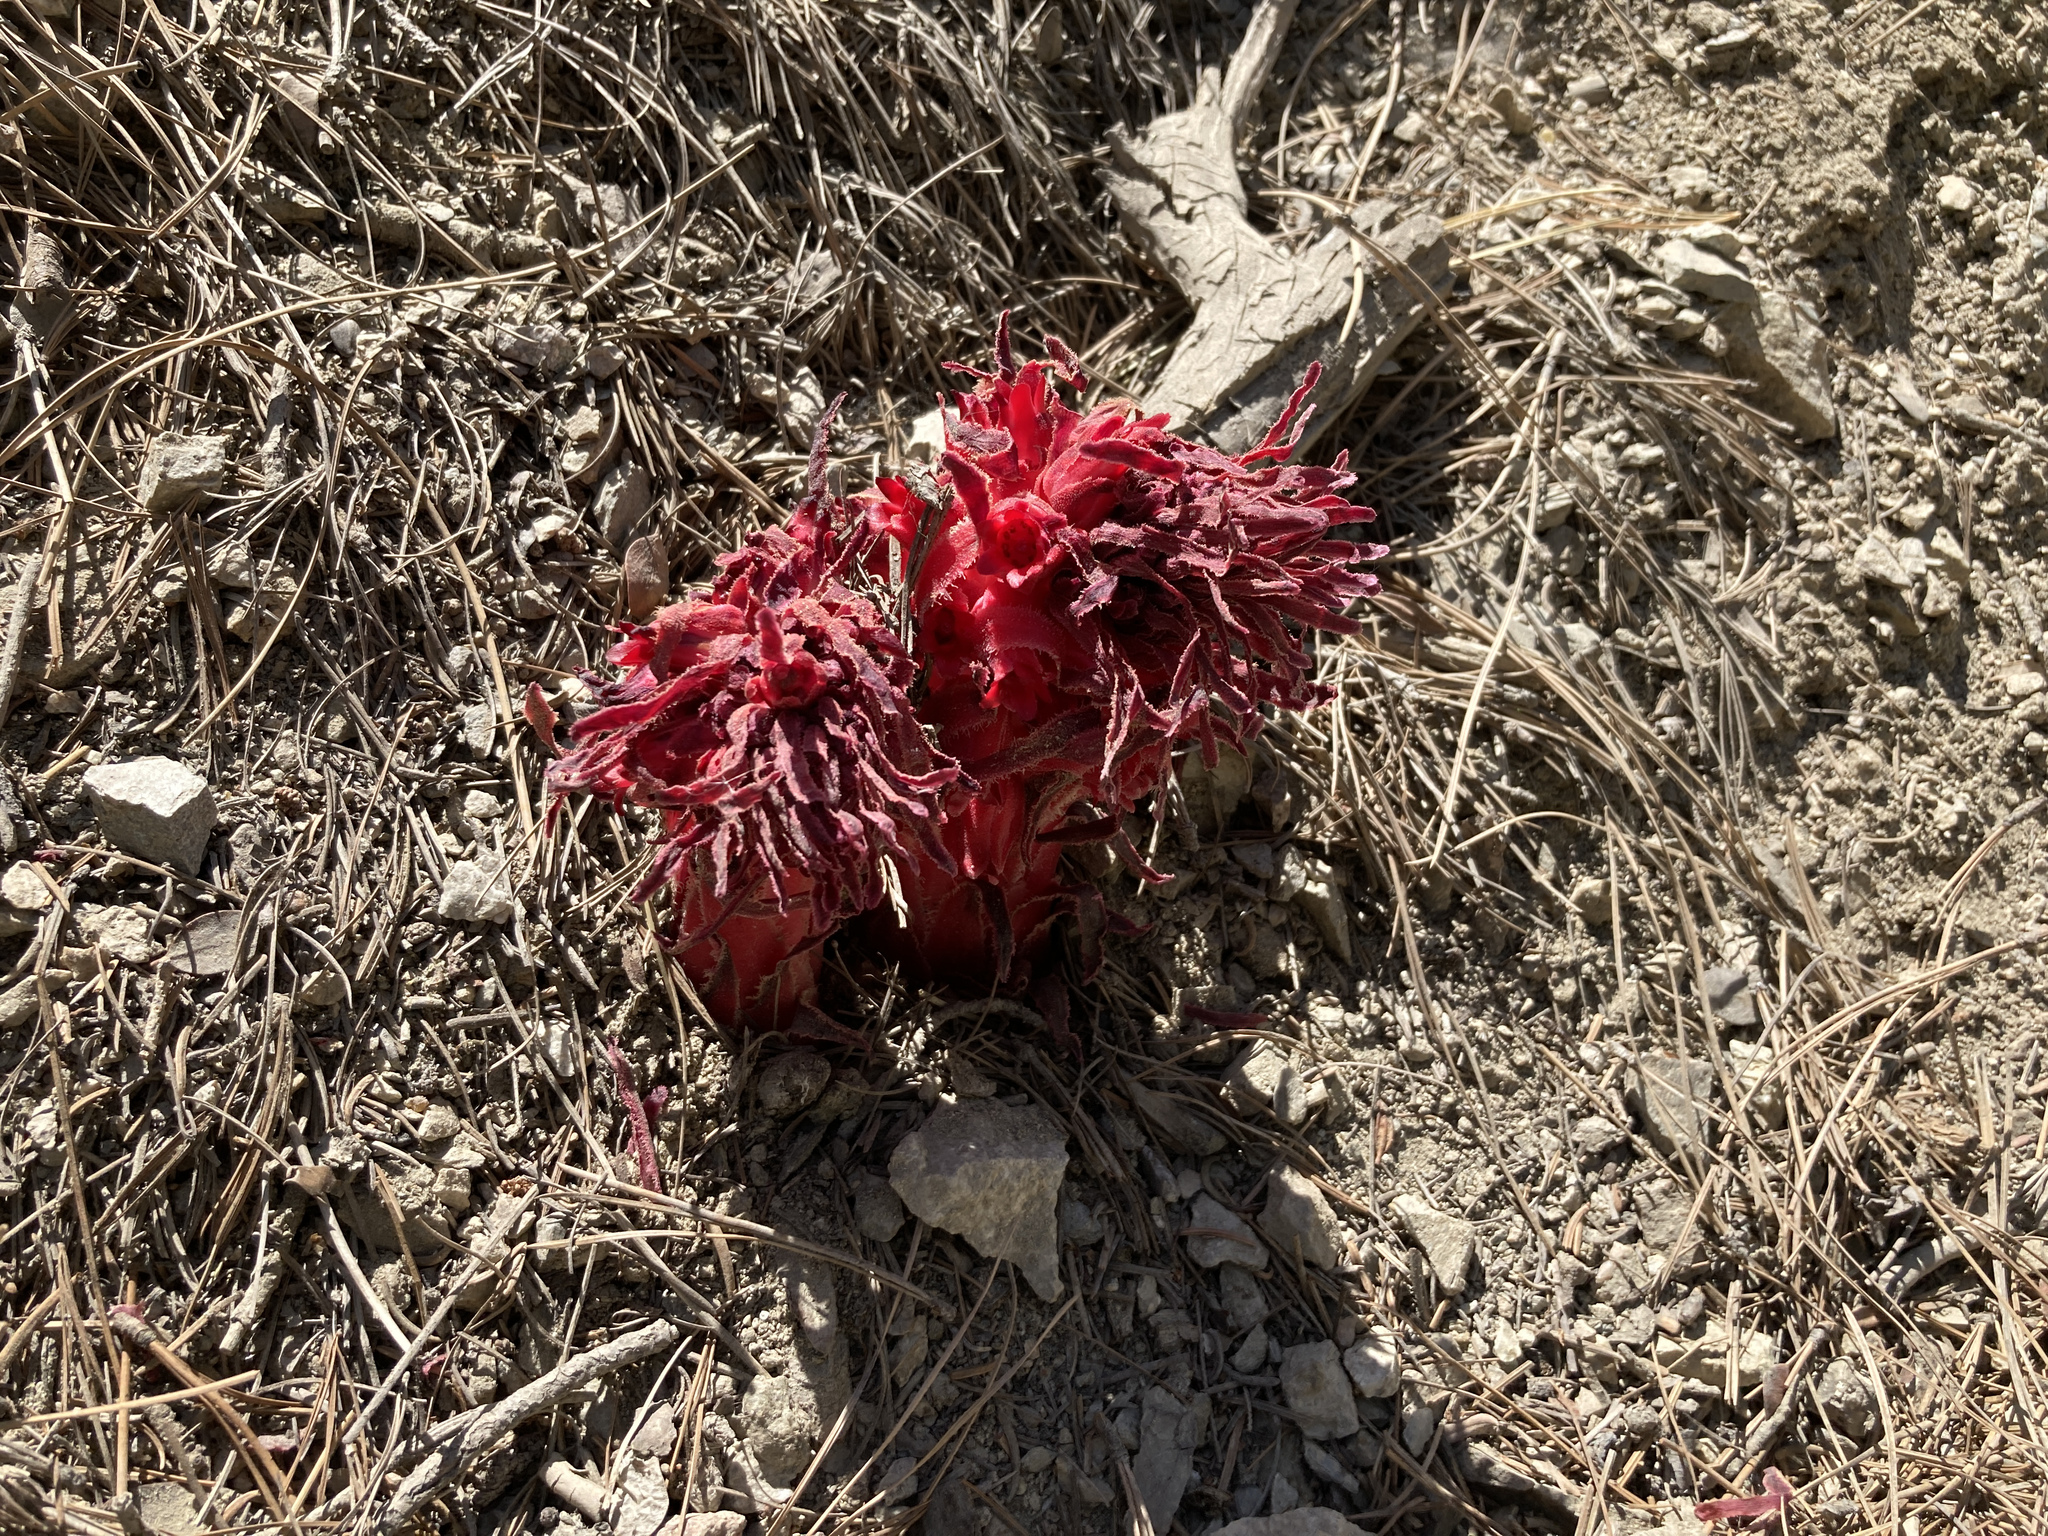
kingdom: Plantae
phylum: Tracheophyta
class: Magnoliopsida
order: Ericales
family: Ericaceae
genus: Sarcodes
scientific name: Sarcodes sanguinea
